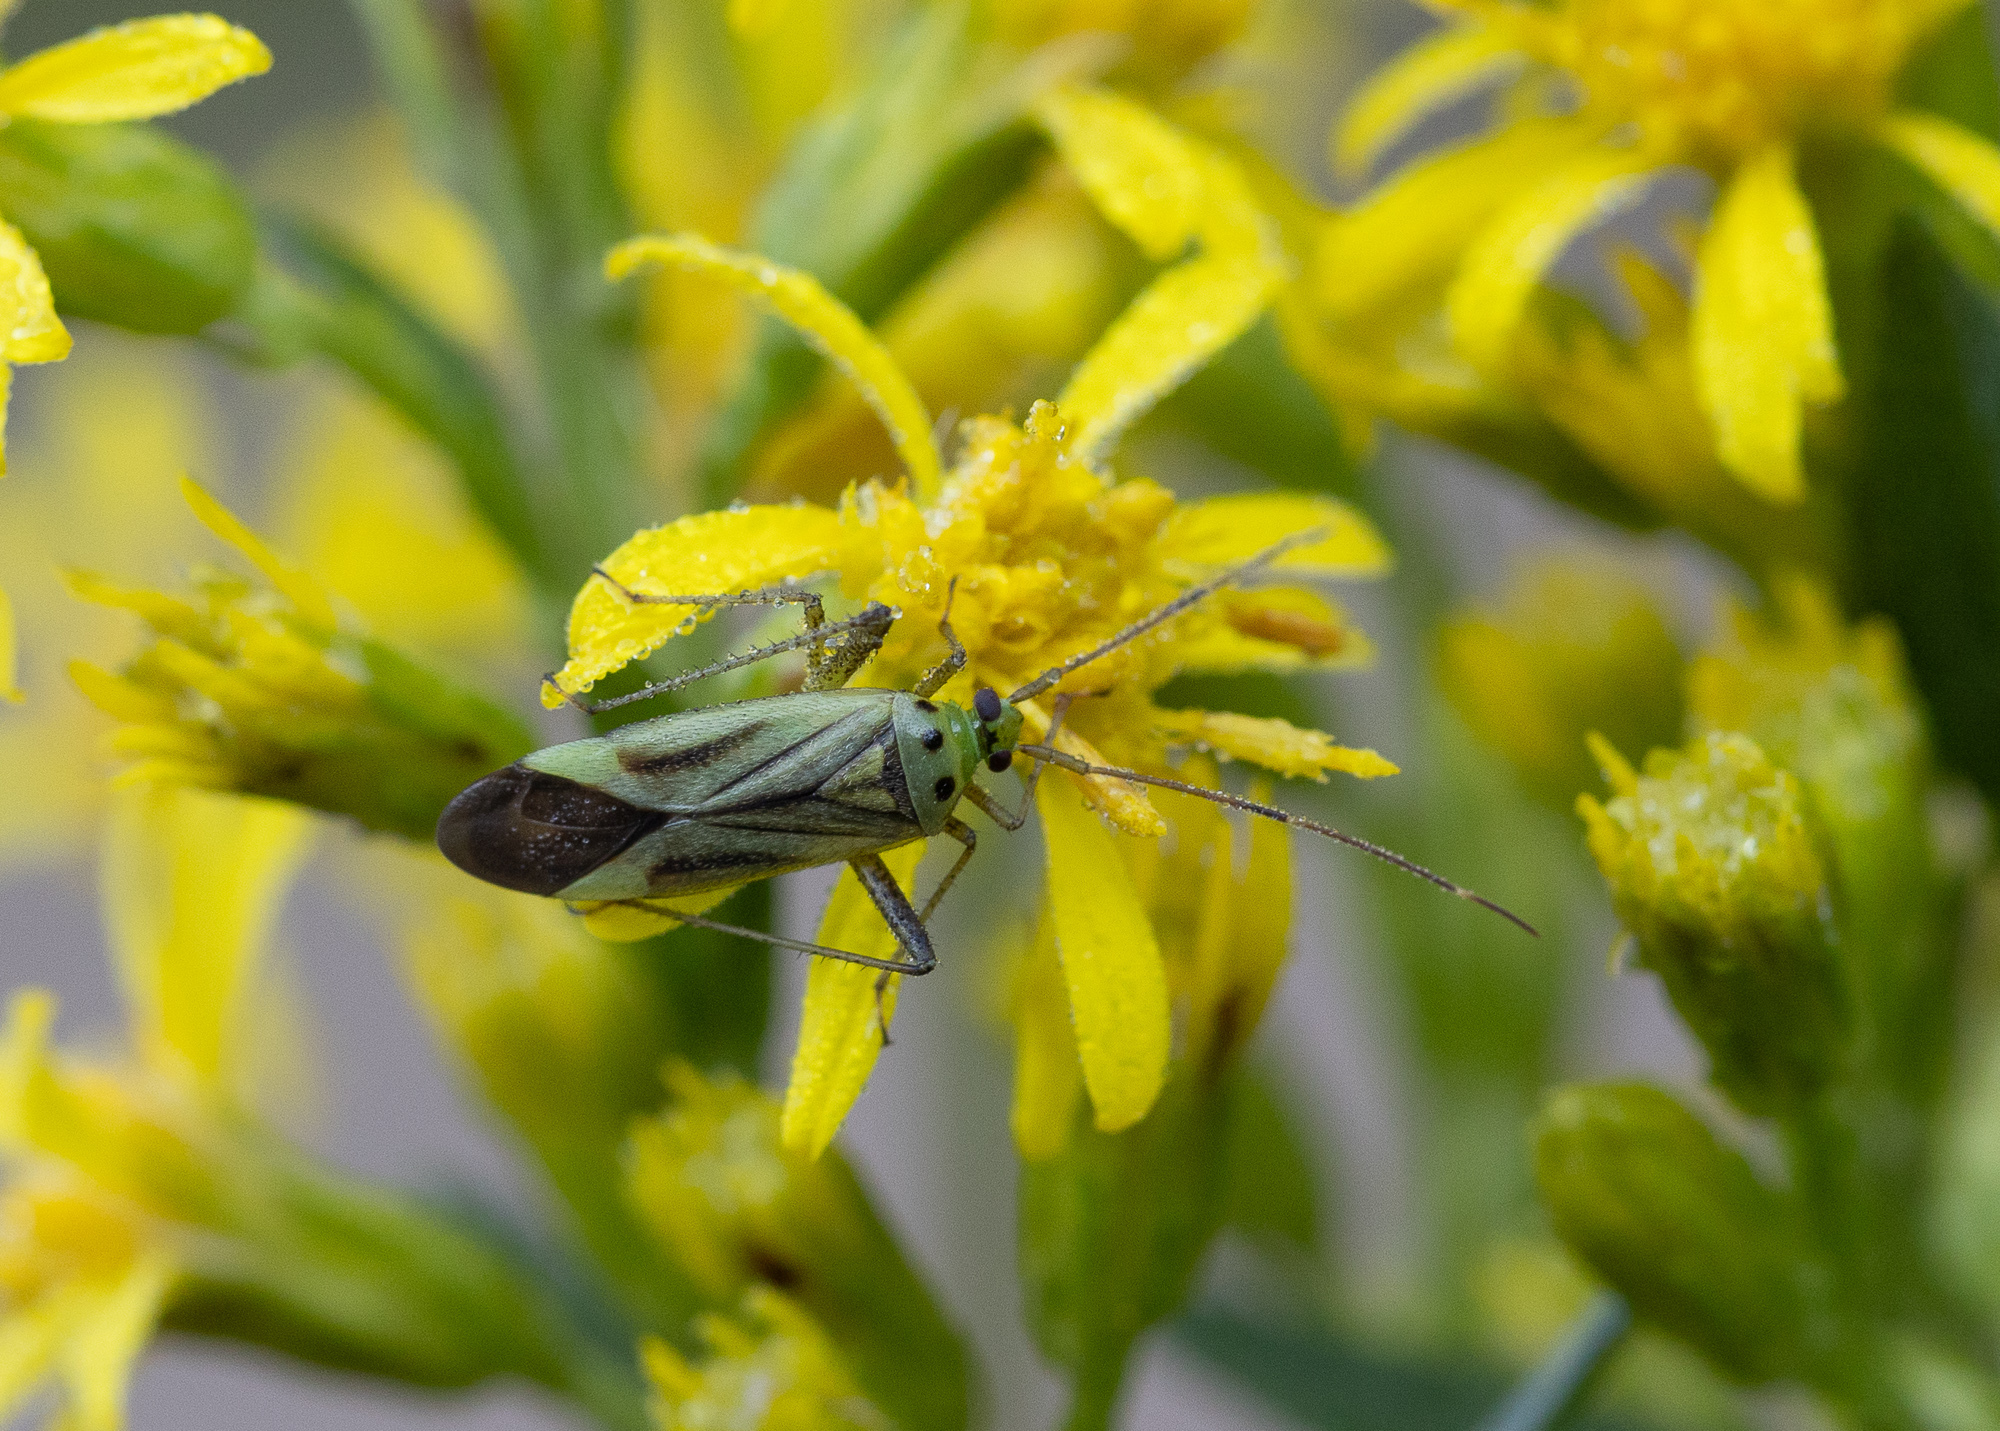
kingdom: Animalia
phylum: Arthropoda
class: Insecta
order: Hemiptera
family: Miridae
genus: Adelphocoris
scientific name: Adelphocoris quadripunctatus
